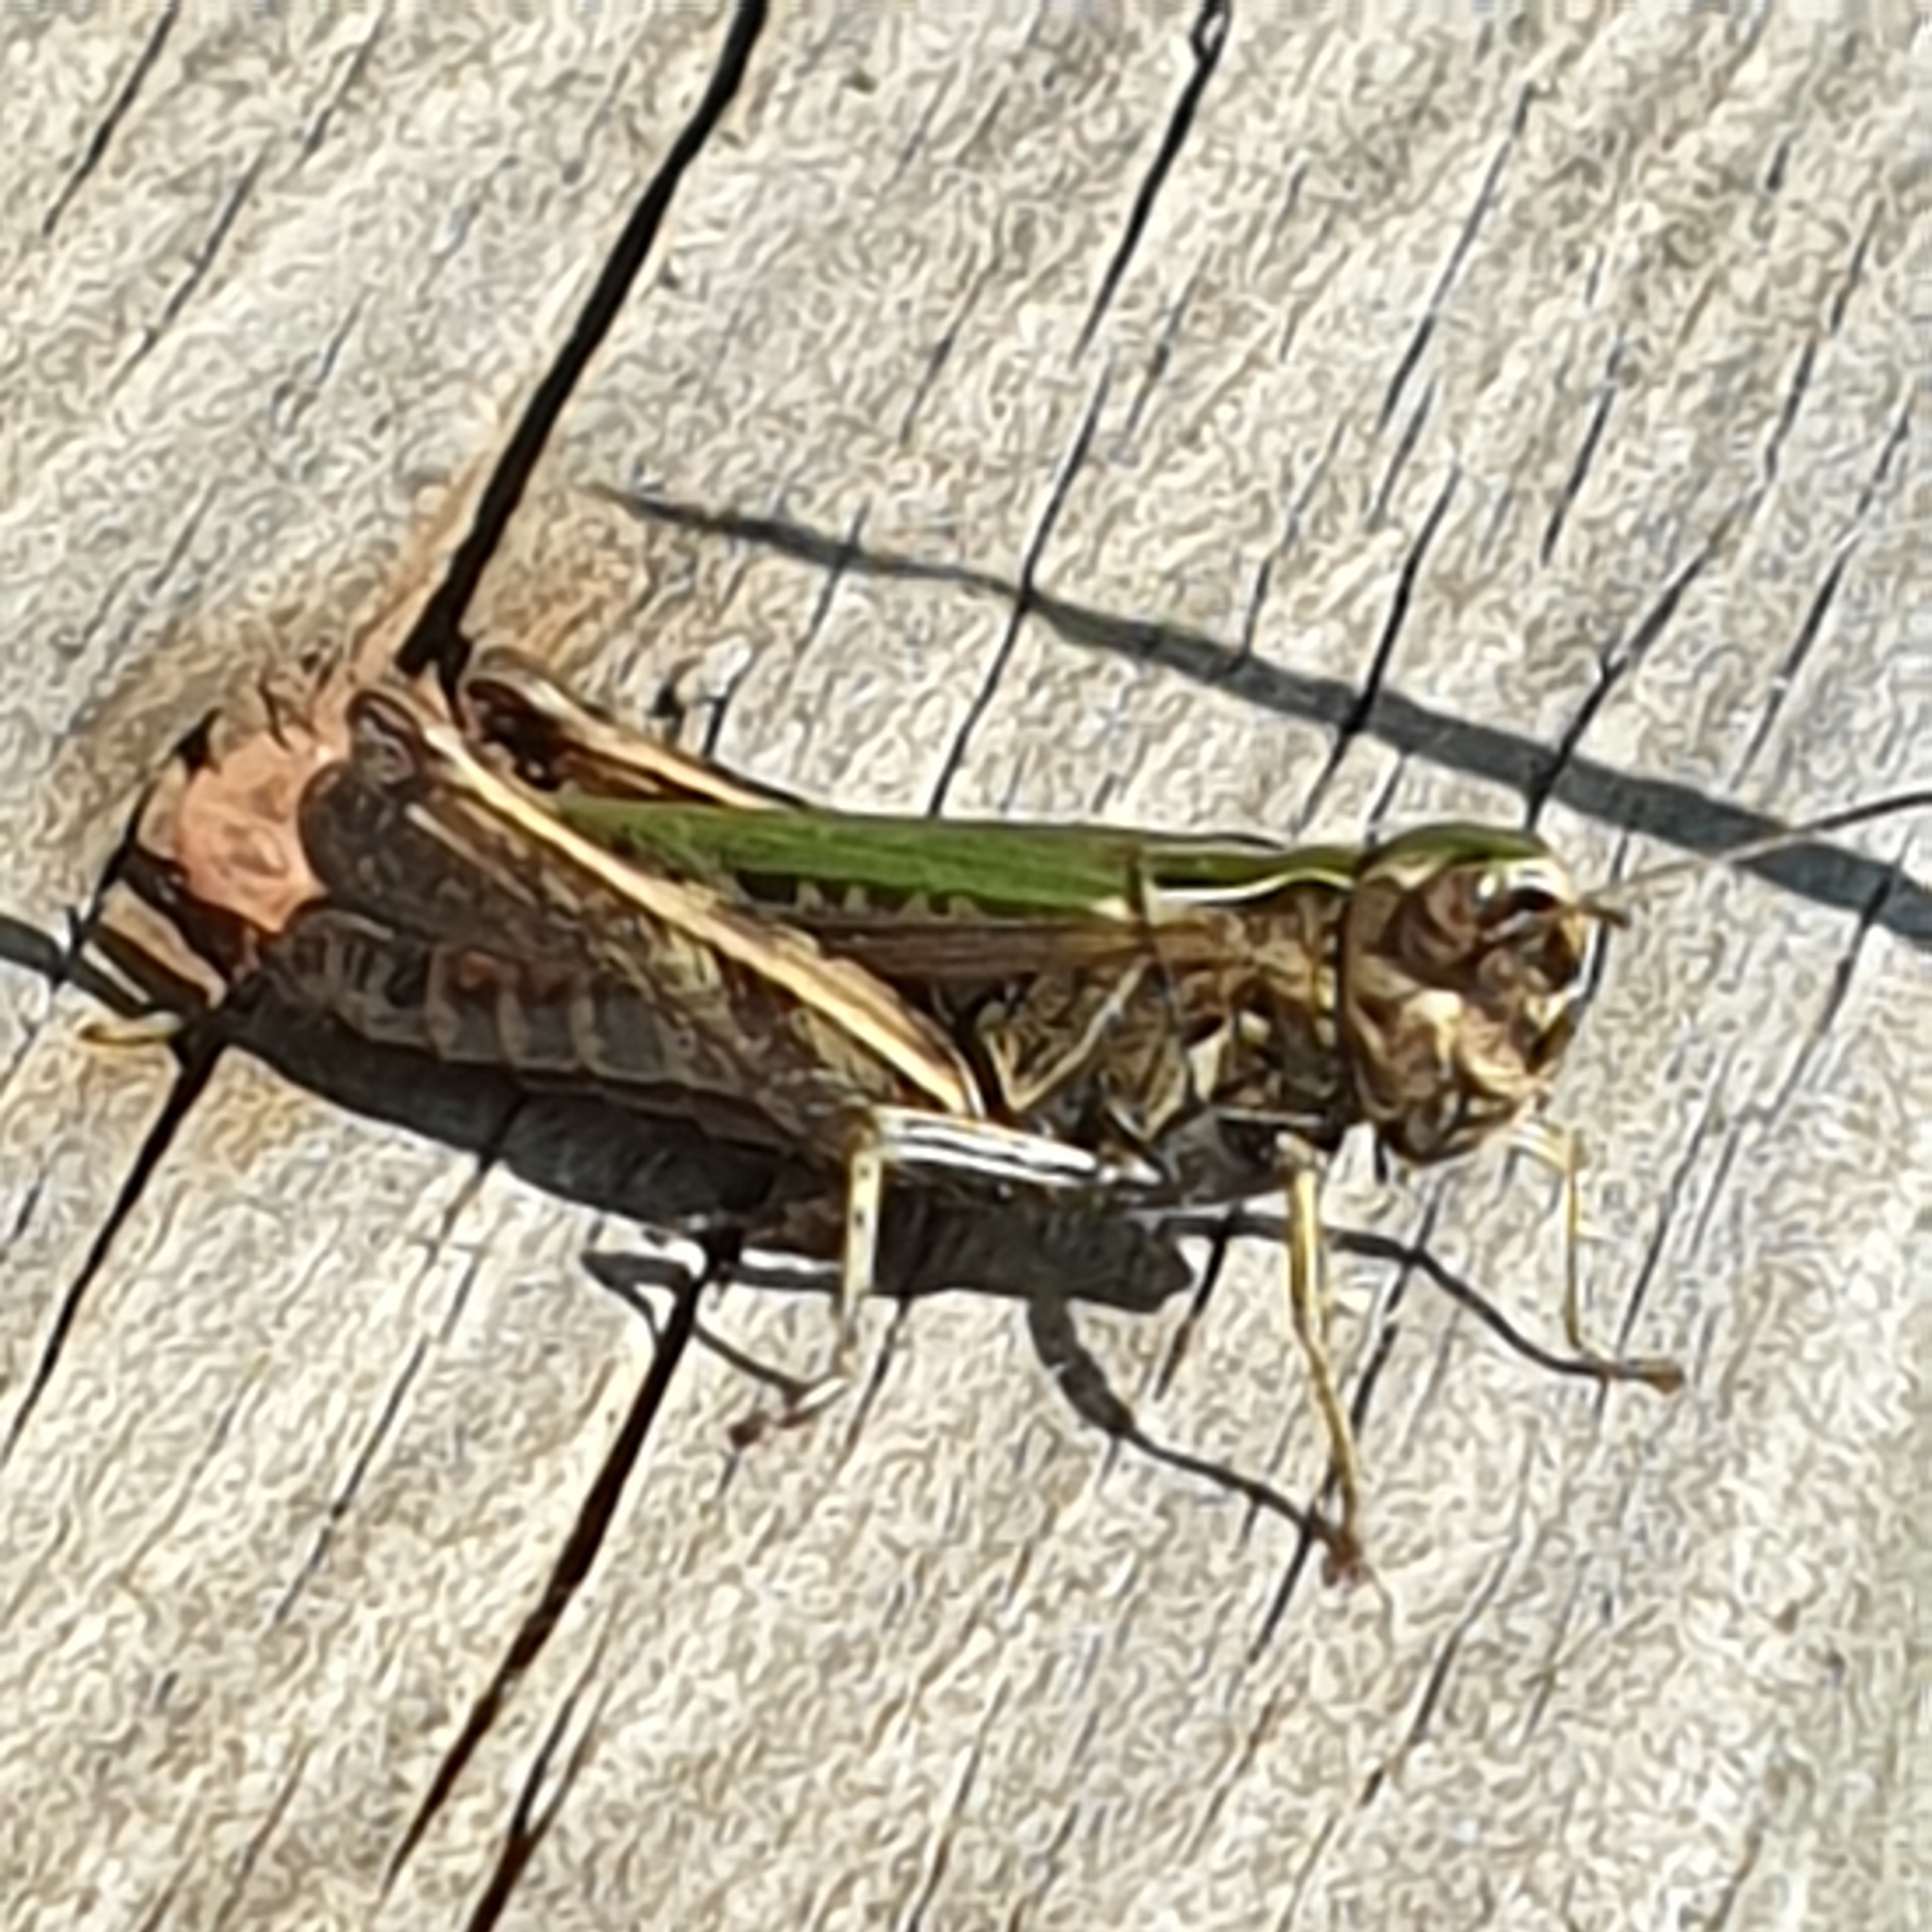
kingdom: Animalia
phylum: Arthropoda
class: Insecta
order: Orthoptera
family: Acrididae
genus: Omocestus
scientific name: Omocestus viridulus
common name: Common green grasshopper
